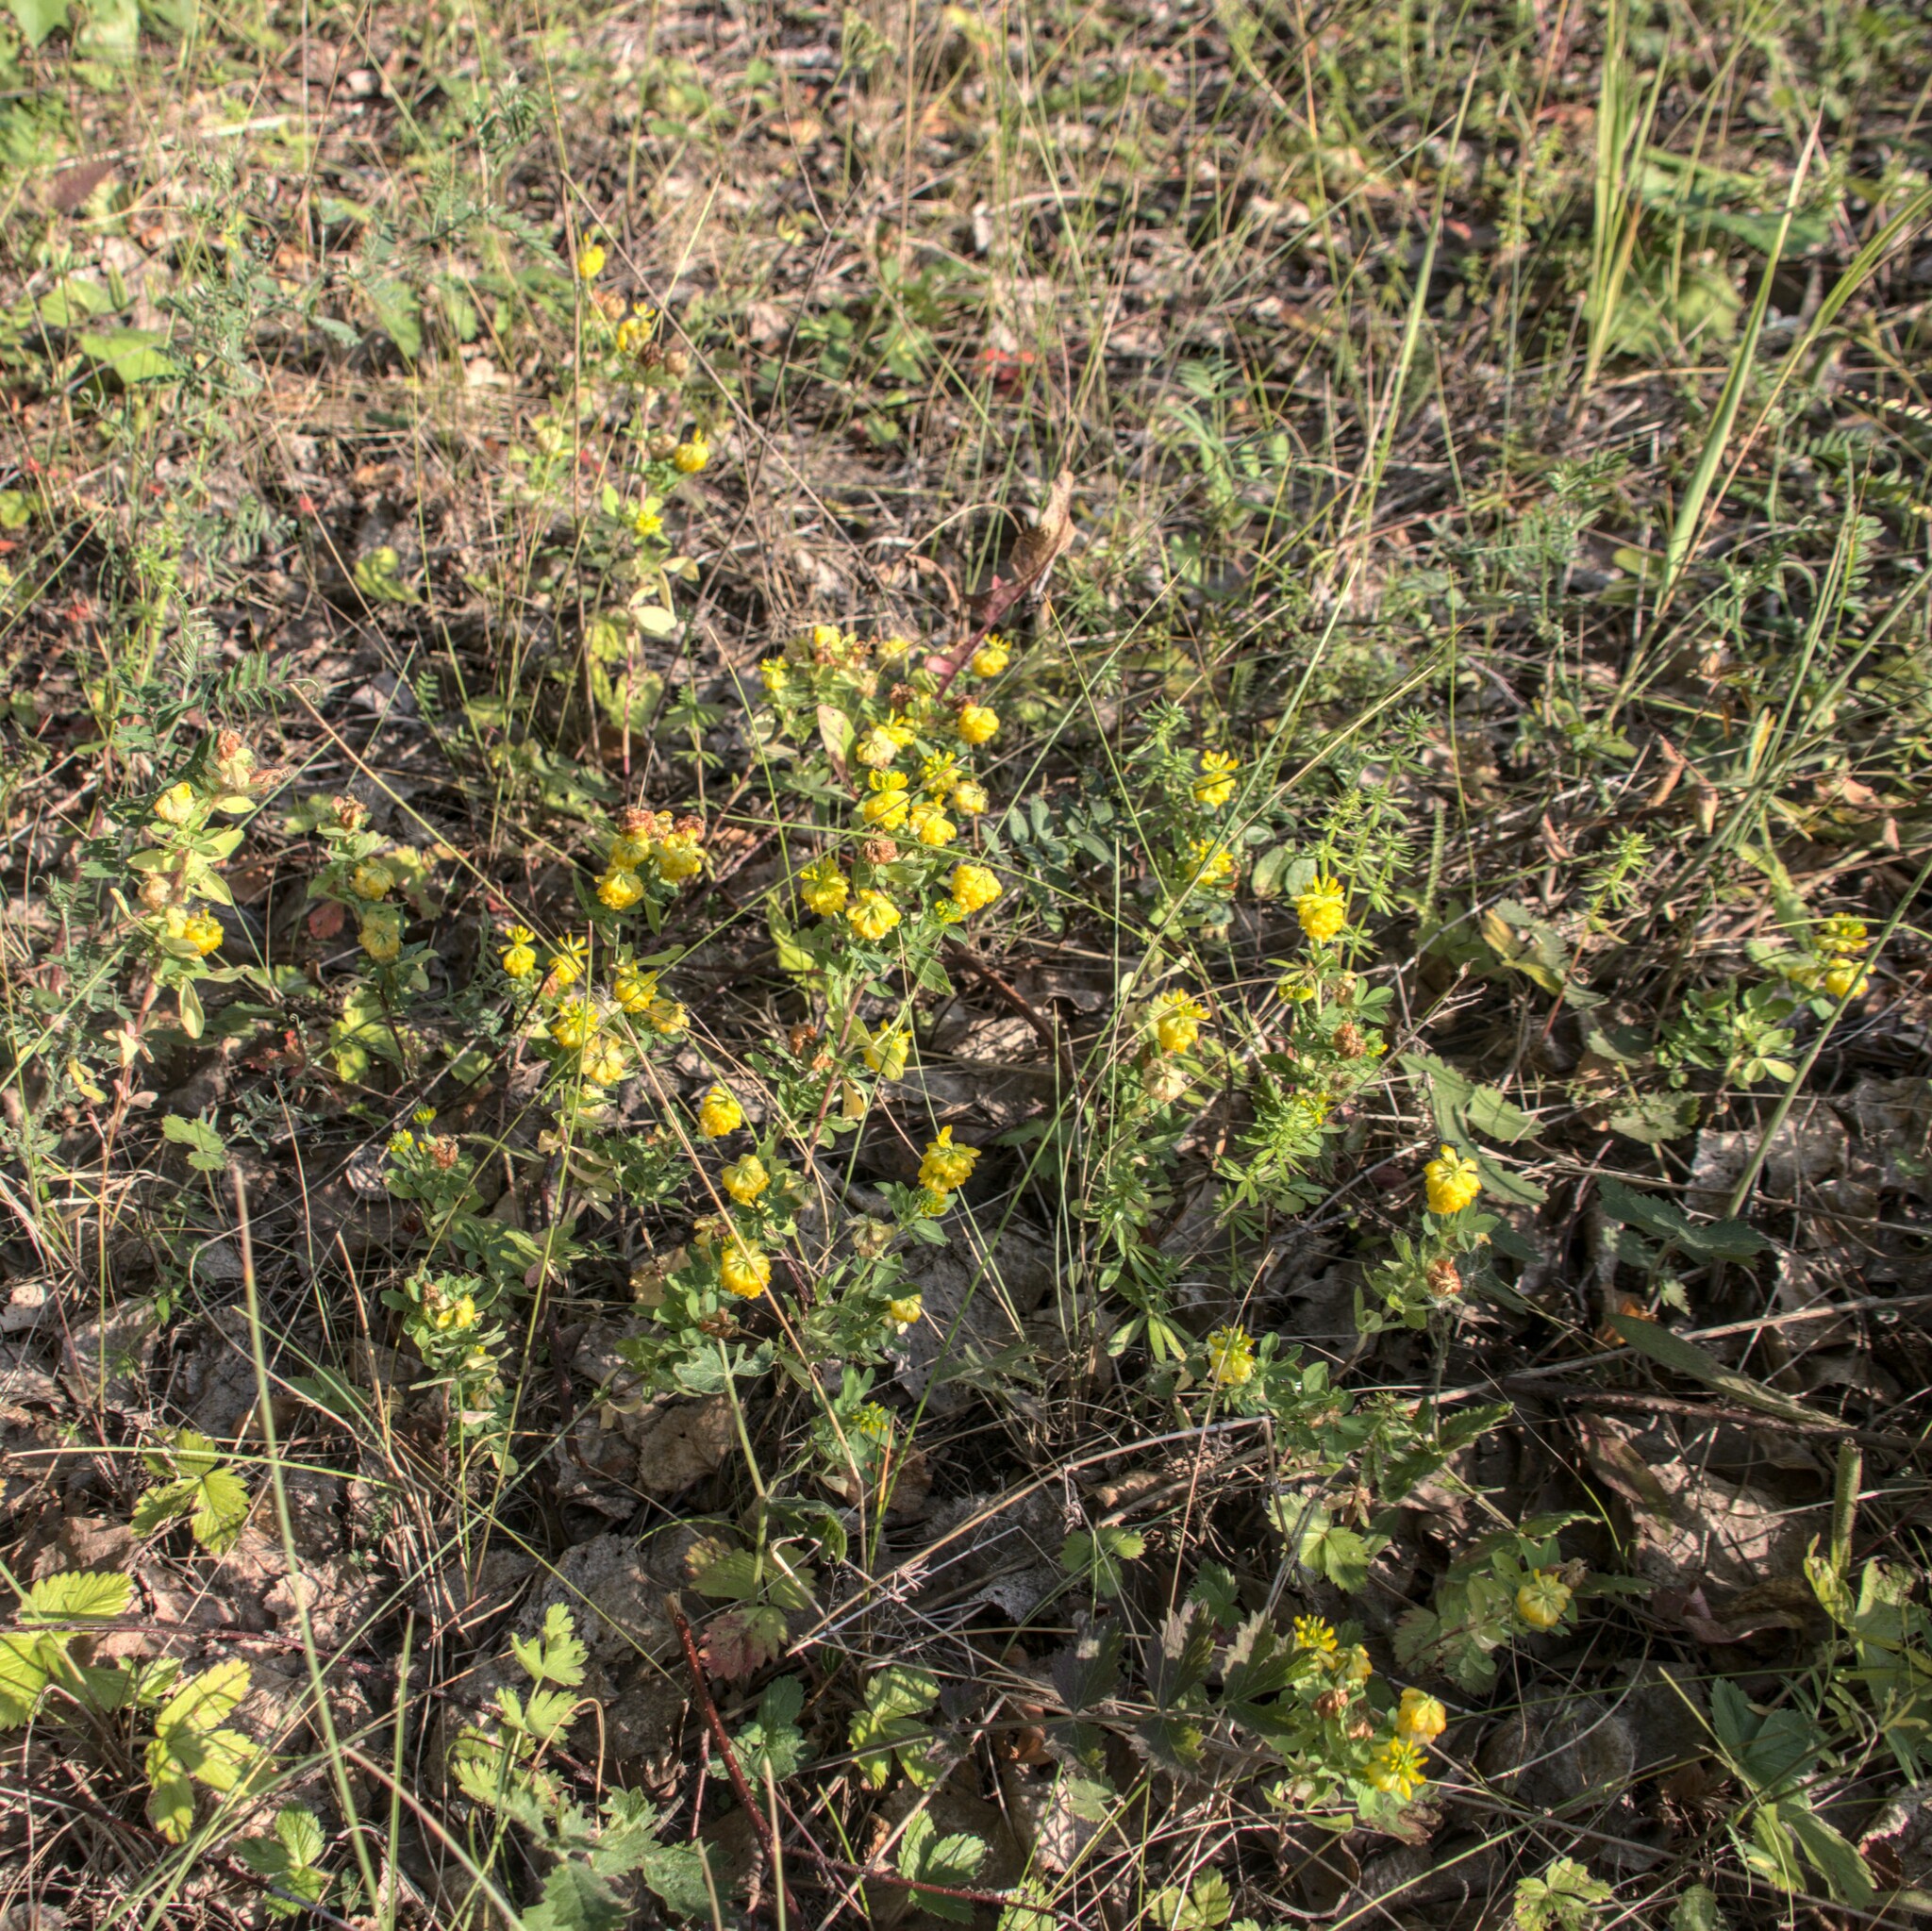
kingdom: Plantae
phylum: Tracheophyta
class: Magnoliopsida
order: Fabales
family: Fabaceae
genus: Trifolium
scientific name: Trifolium aureum
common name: Golden clover
